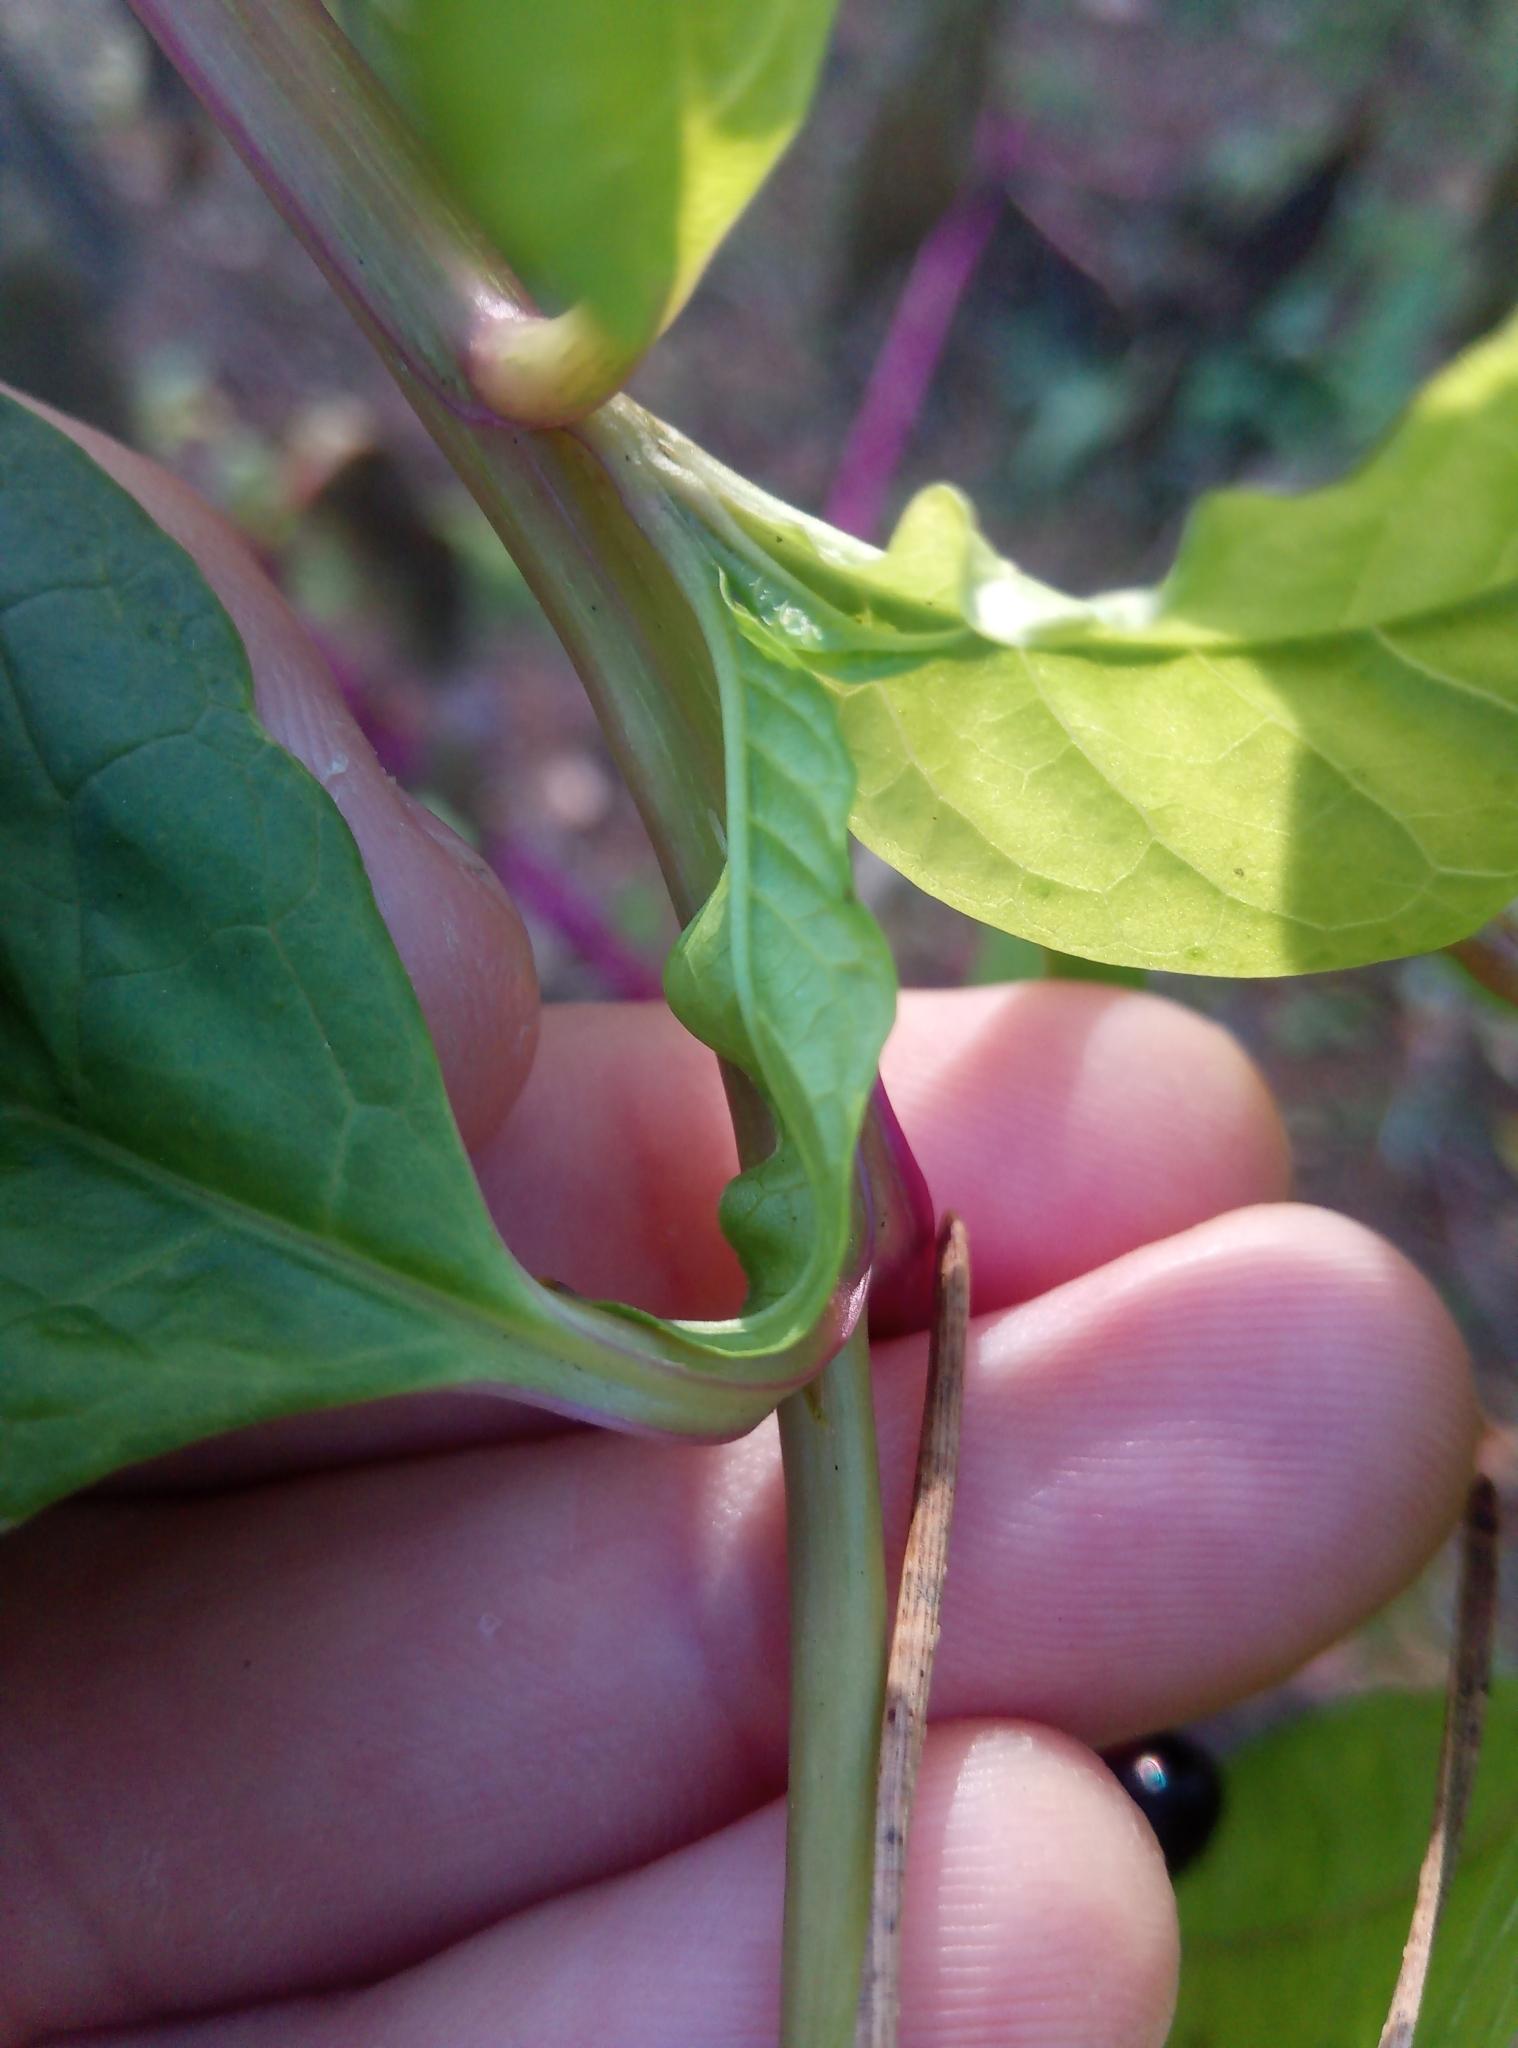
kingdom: Plantae
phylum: Tracheophyta
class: Magnoliopsida
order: Caryophyllales
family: Phytolaccaceae
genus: Phytolacca
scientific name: Phytolacca americana
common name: American pokeweed
